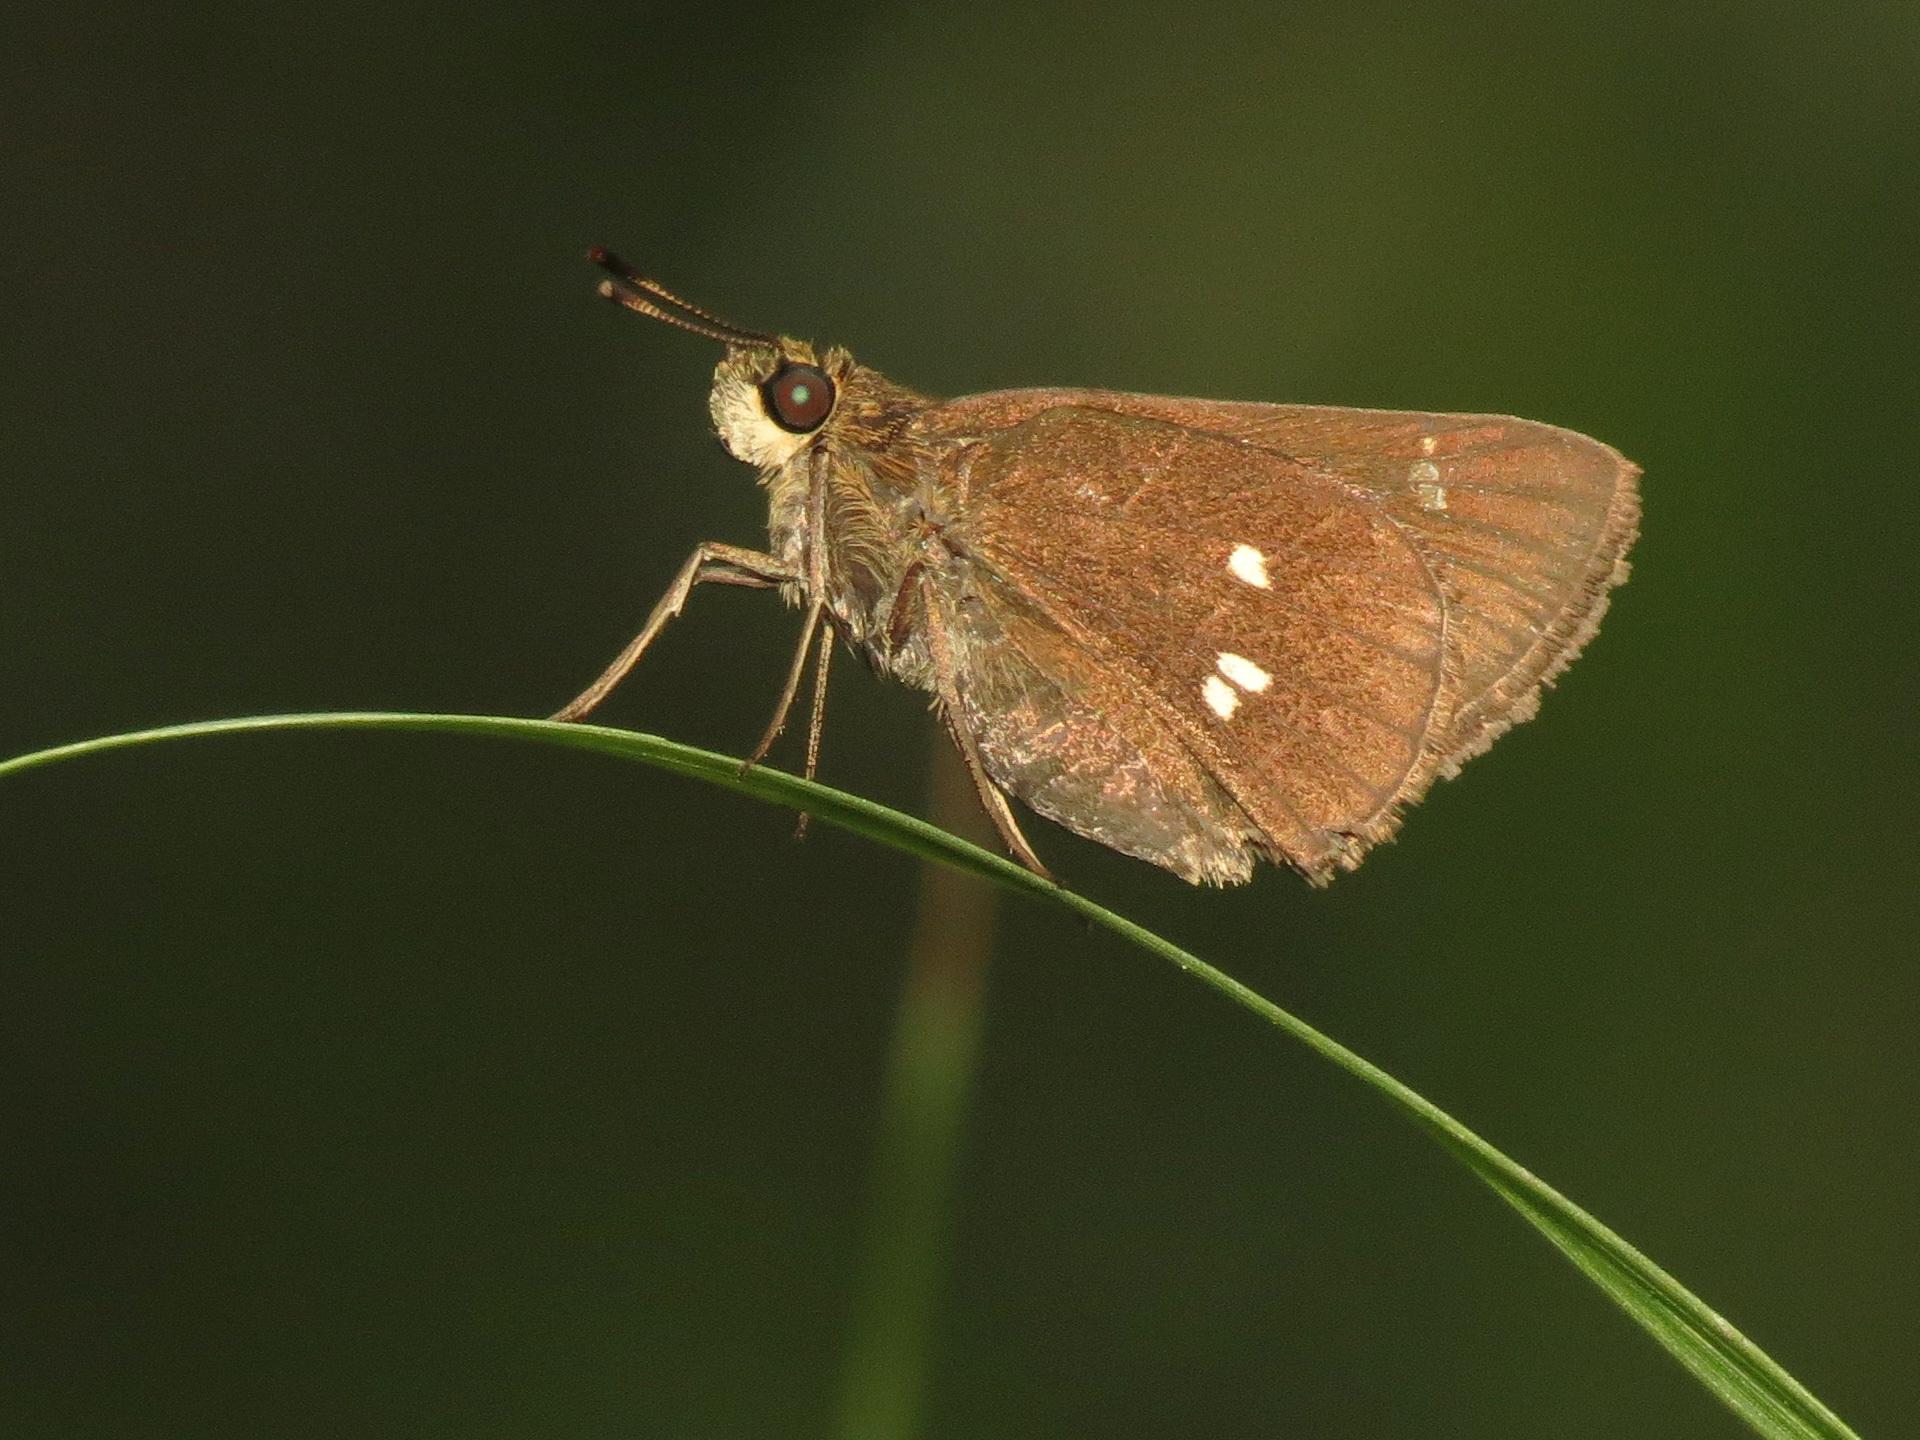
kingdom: Animalia
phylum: Arthropoda
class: Insecta
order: Lepidoptera
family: Hesperiidae
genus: Oligoria
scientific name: Oligoria maculata
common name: Twin-spot skipper
